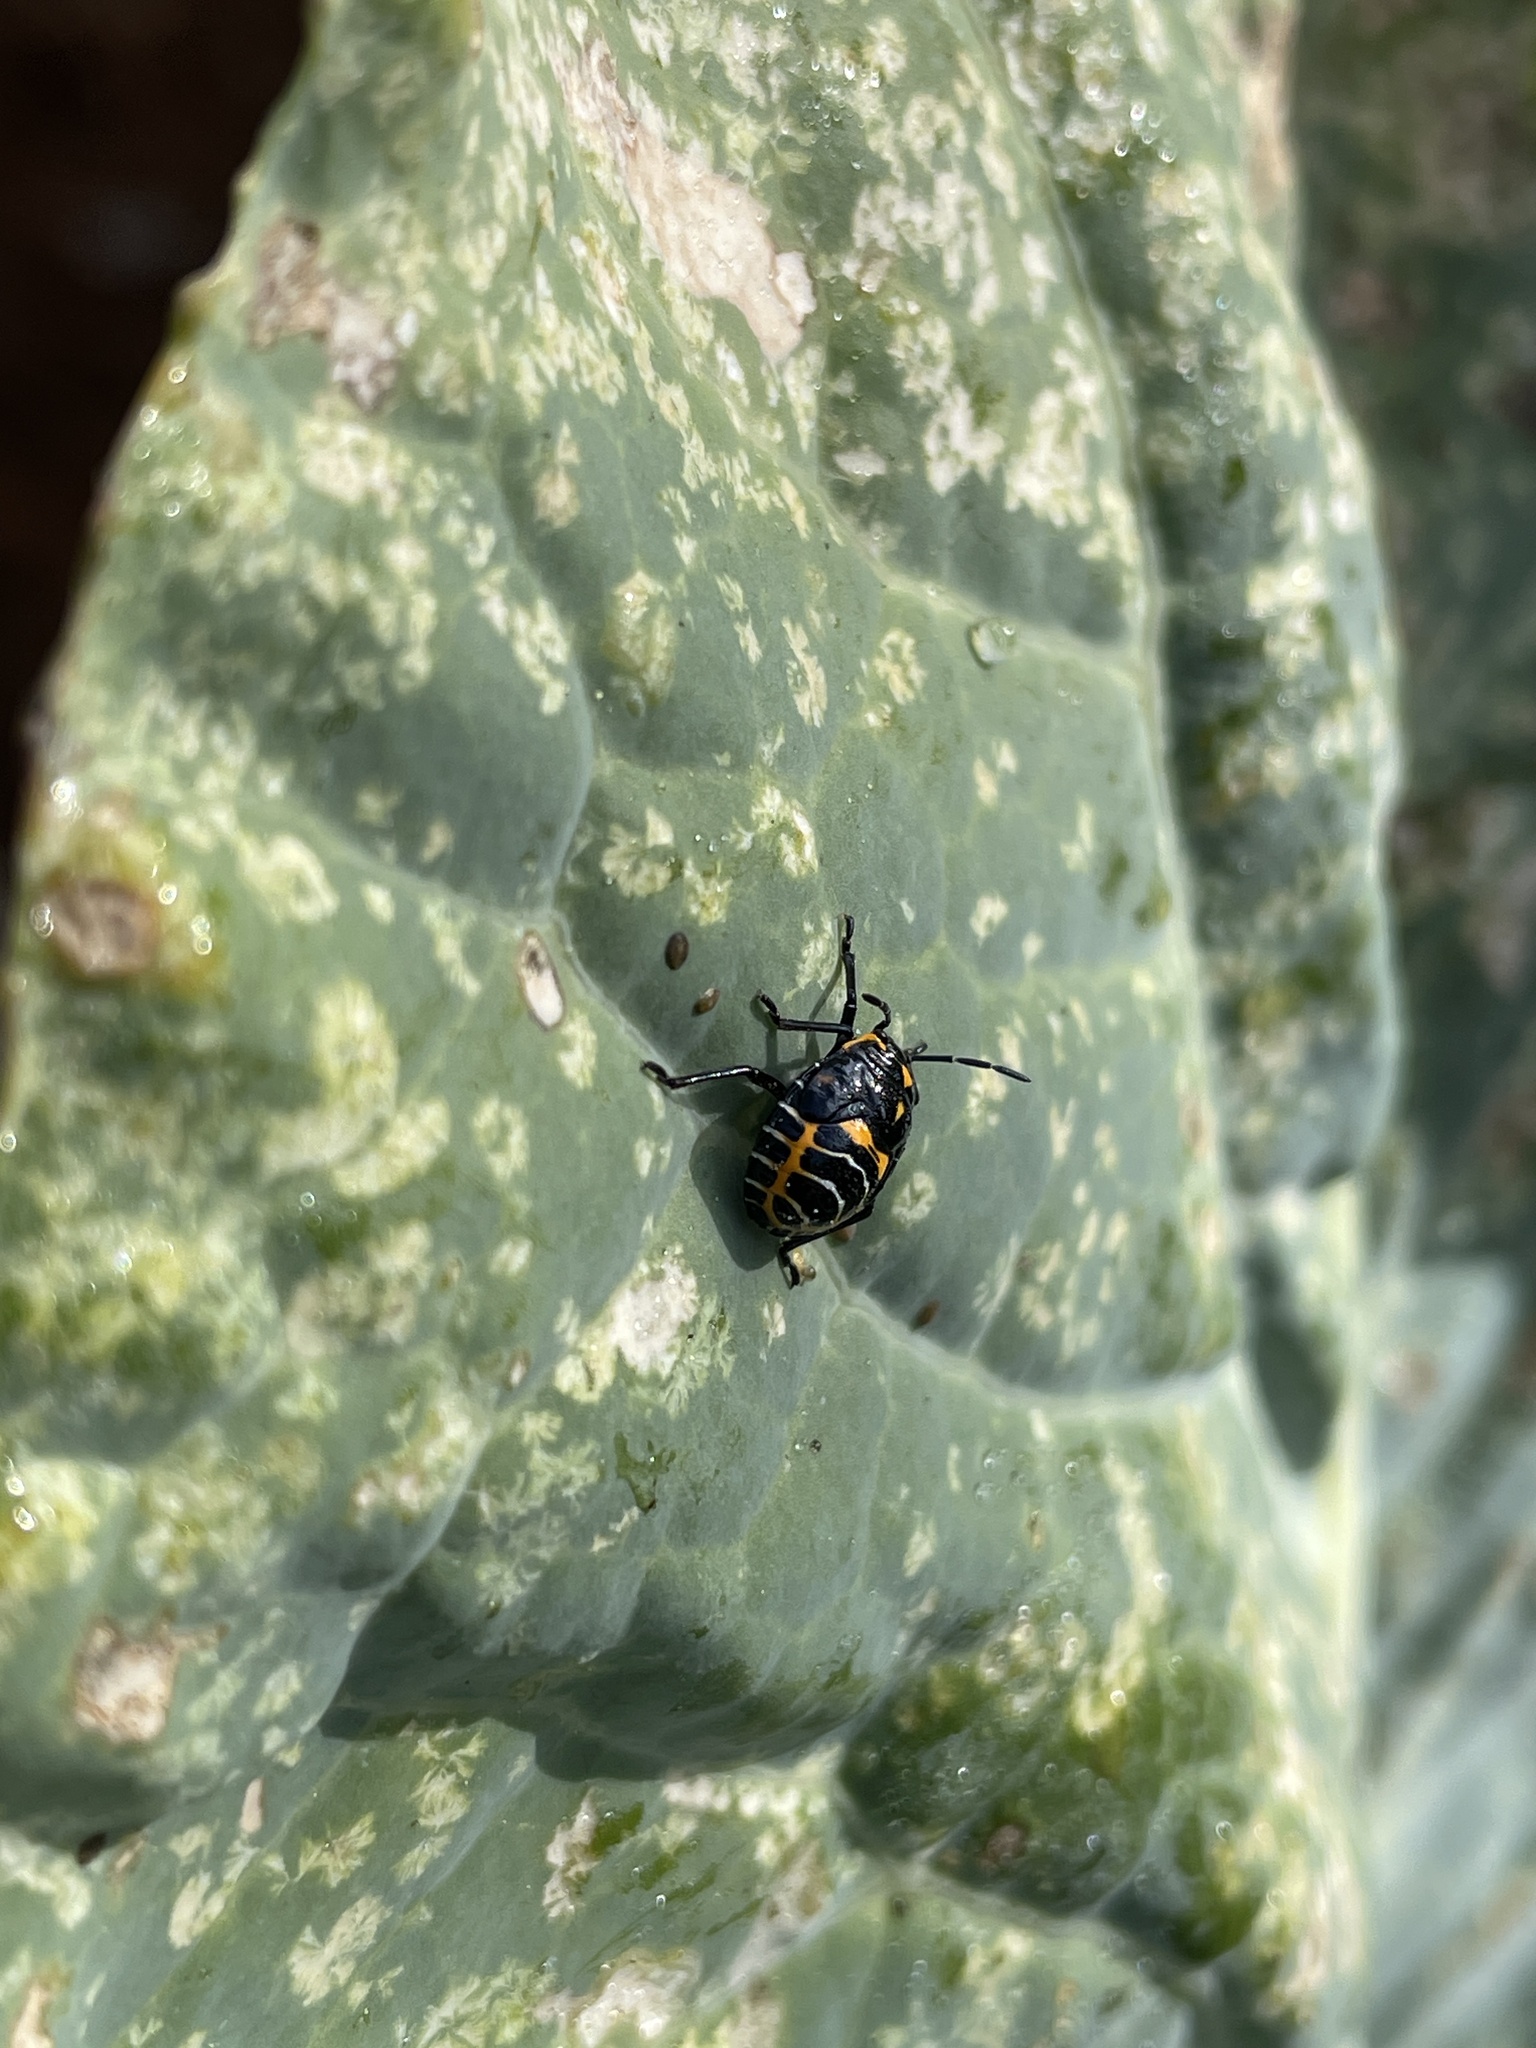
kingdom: Animalia
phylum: Arthropoda
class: Insecta
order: Hemiptera
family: Pentatomidae
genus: Murgantia
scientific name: Murgantia histrionica
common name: Harlequin bug
